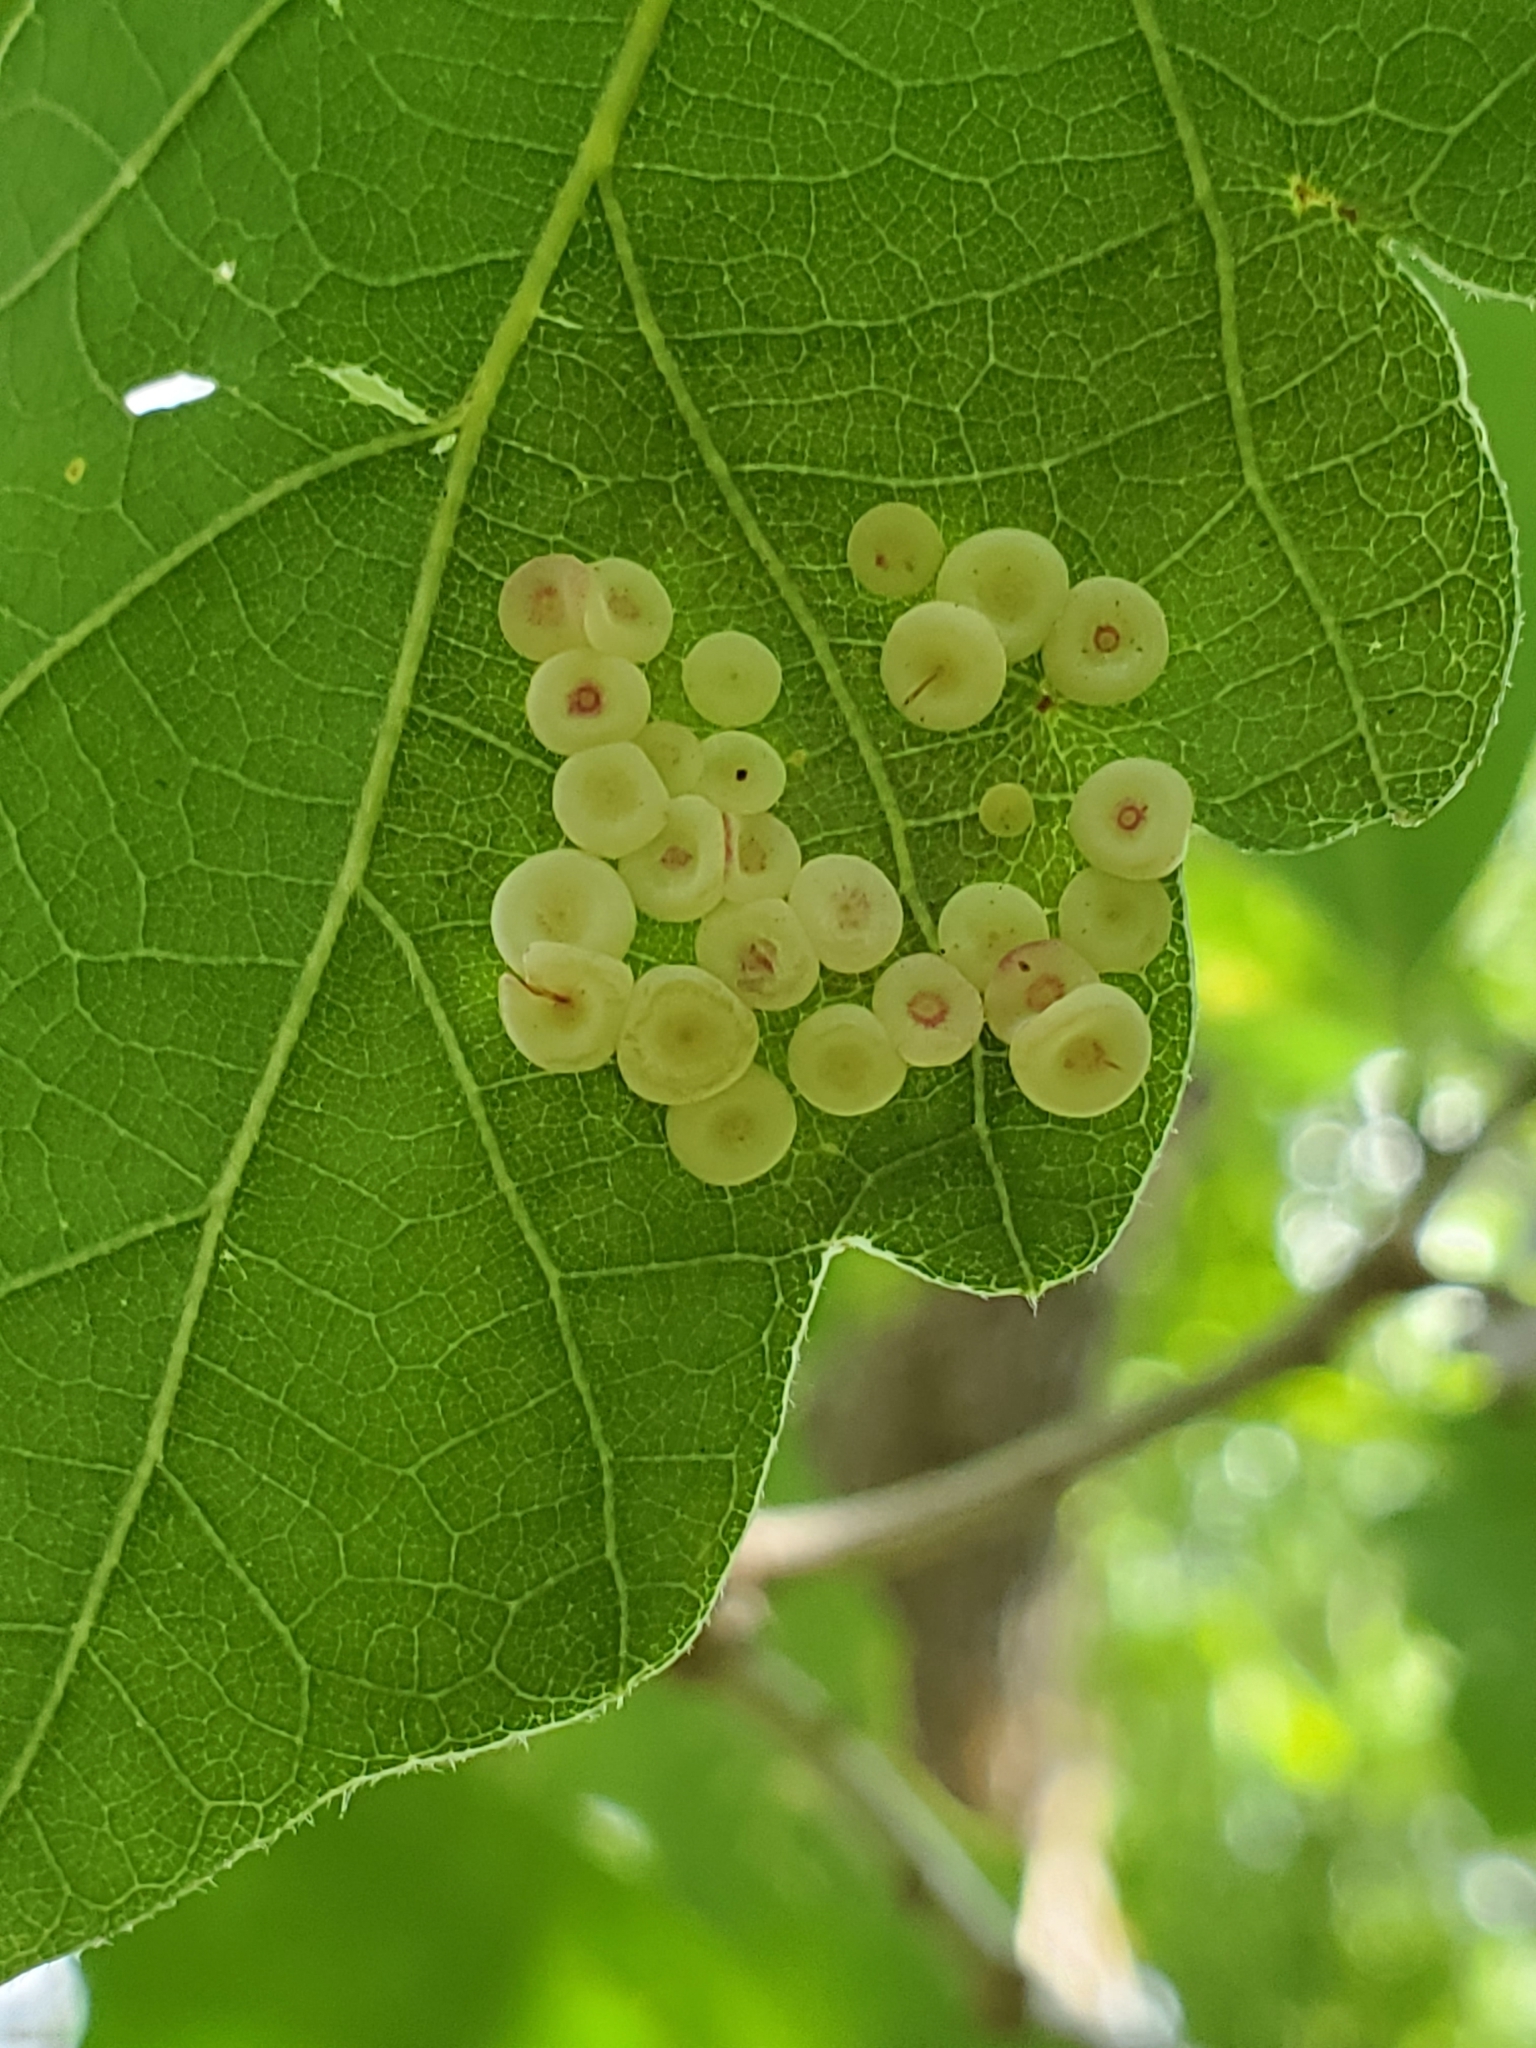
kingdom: Animalia
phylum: Arthropoda
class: Insecta
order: Hymenoptera
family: Cynipidae
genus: Phylloteras
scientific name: Phylloteras poculum
